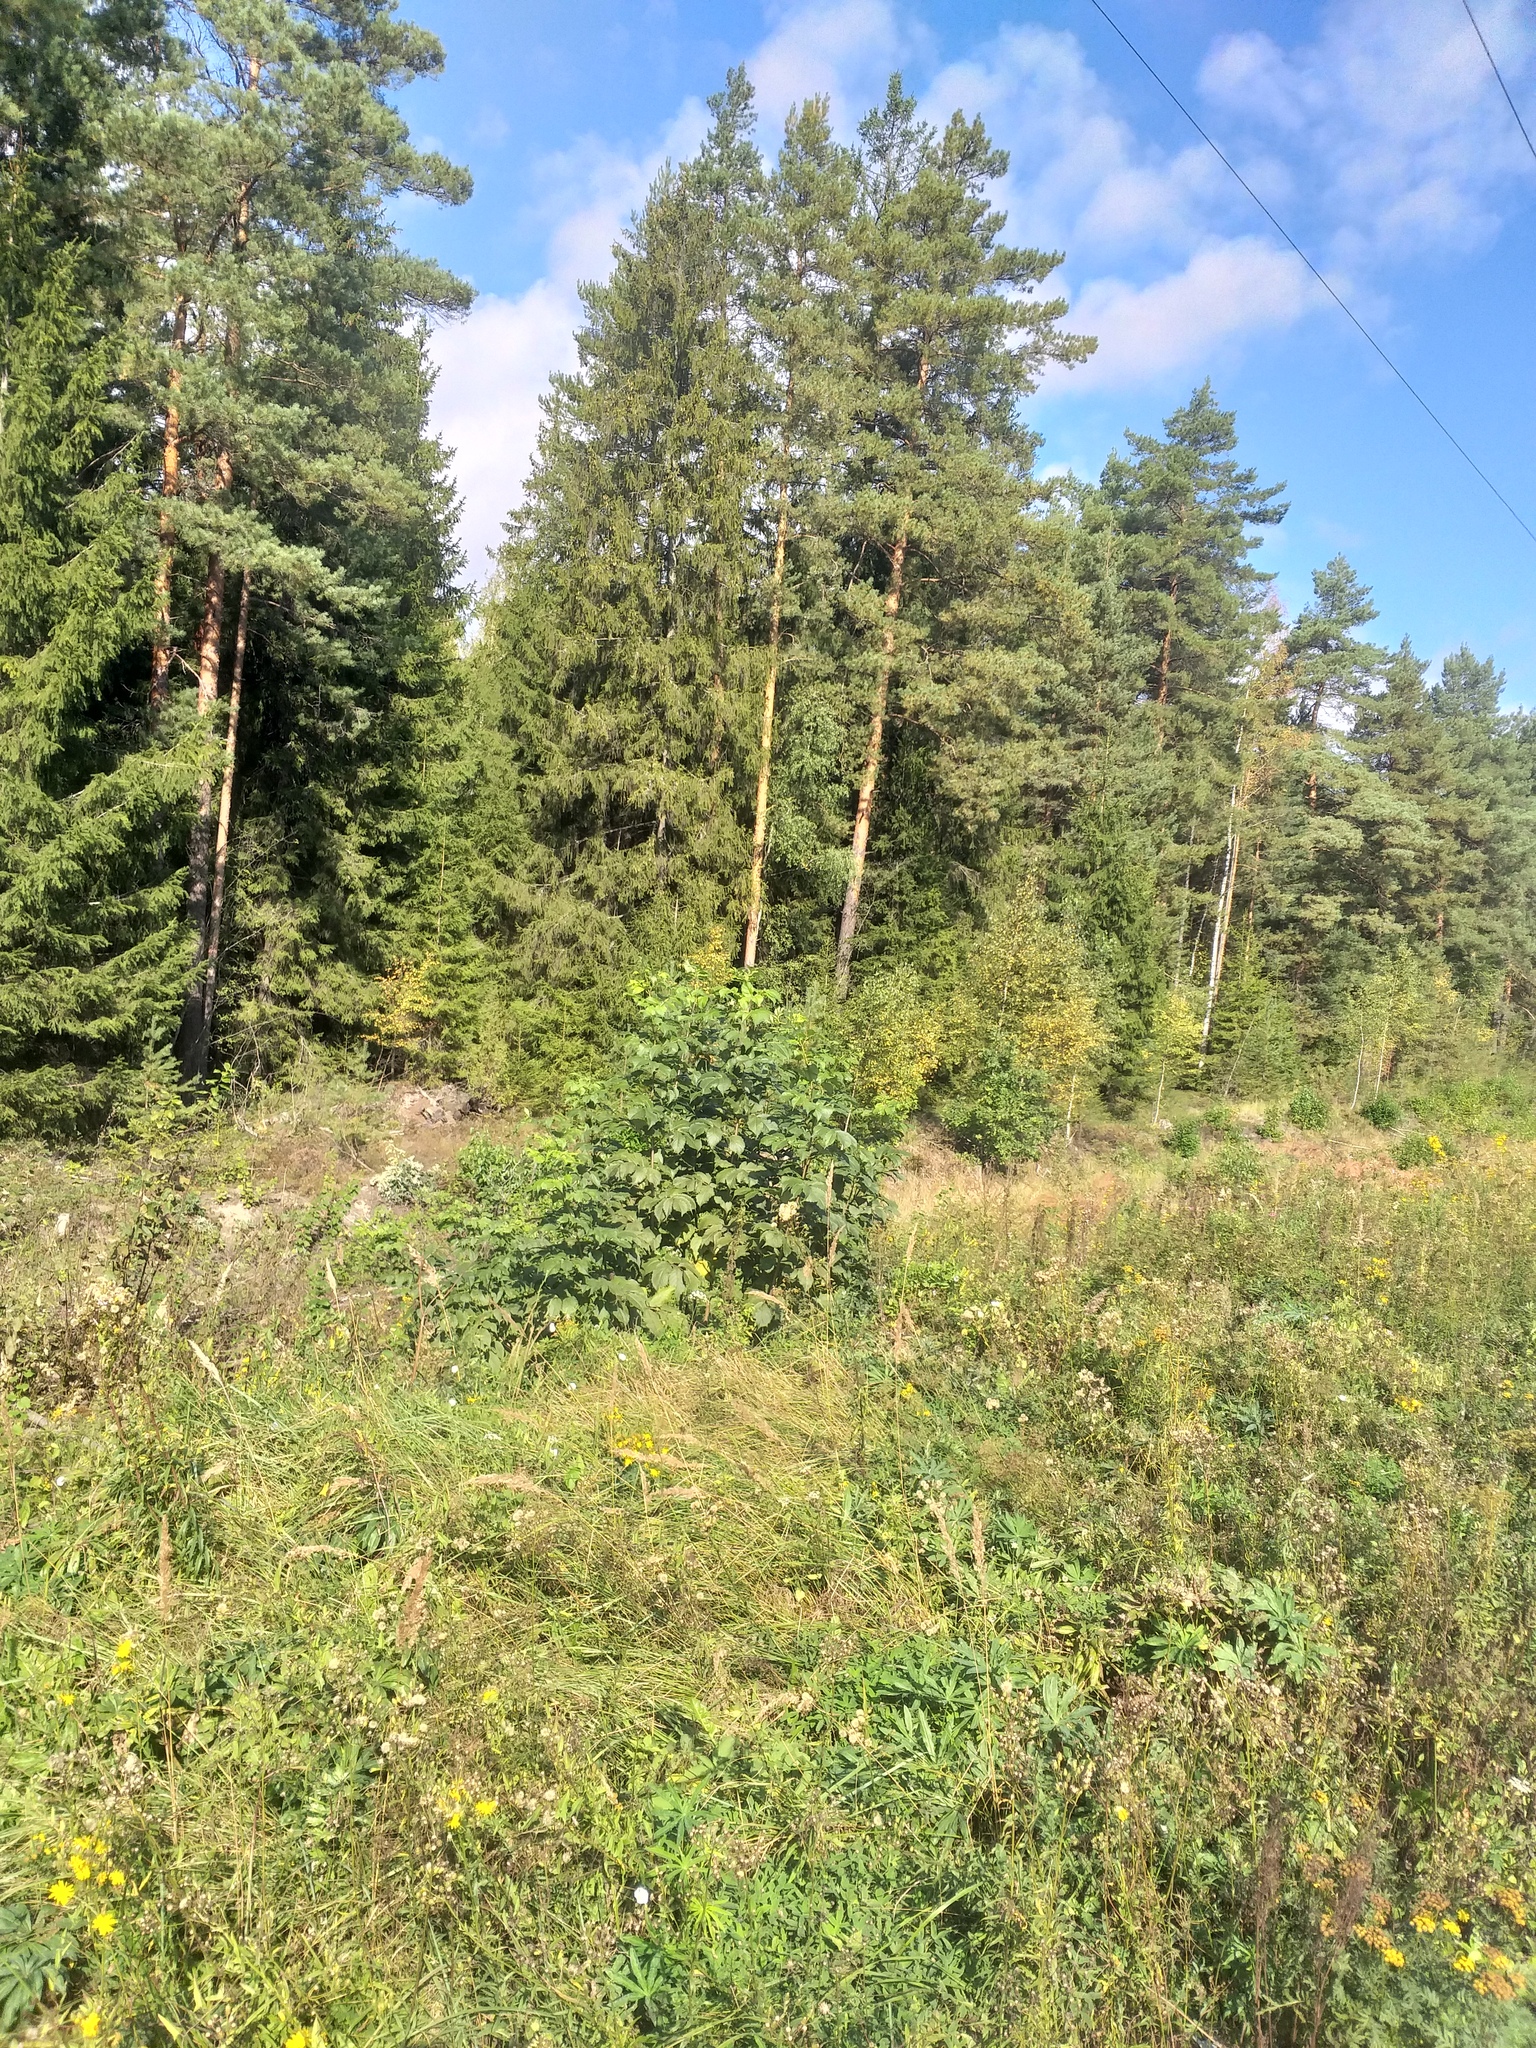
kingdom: Plantae
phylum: Tracheophyta
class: Magnoliopsida
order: Dipsacales
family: Viburnaceae
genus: Sambucus
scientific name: Sambucus racemosa
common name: Red-berried elder
